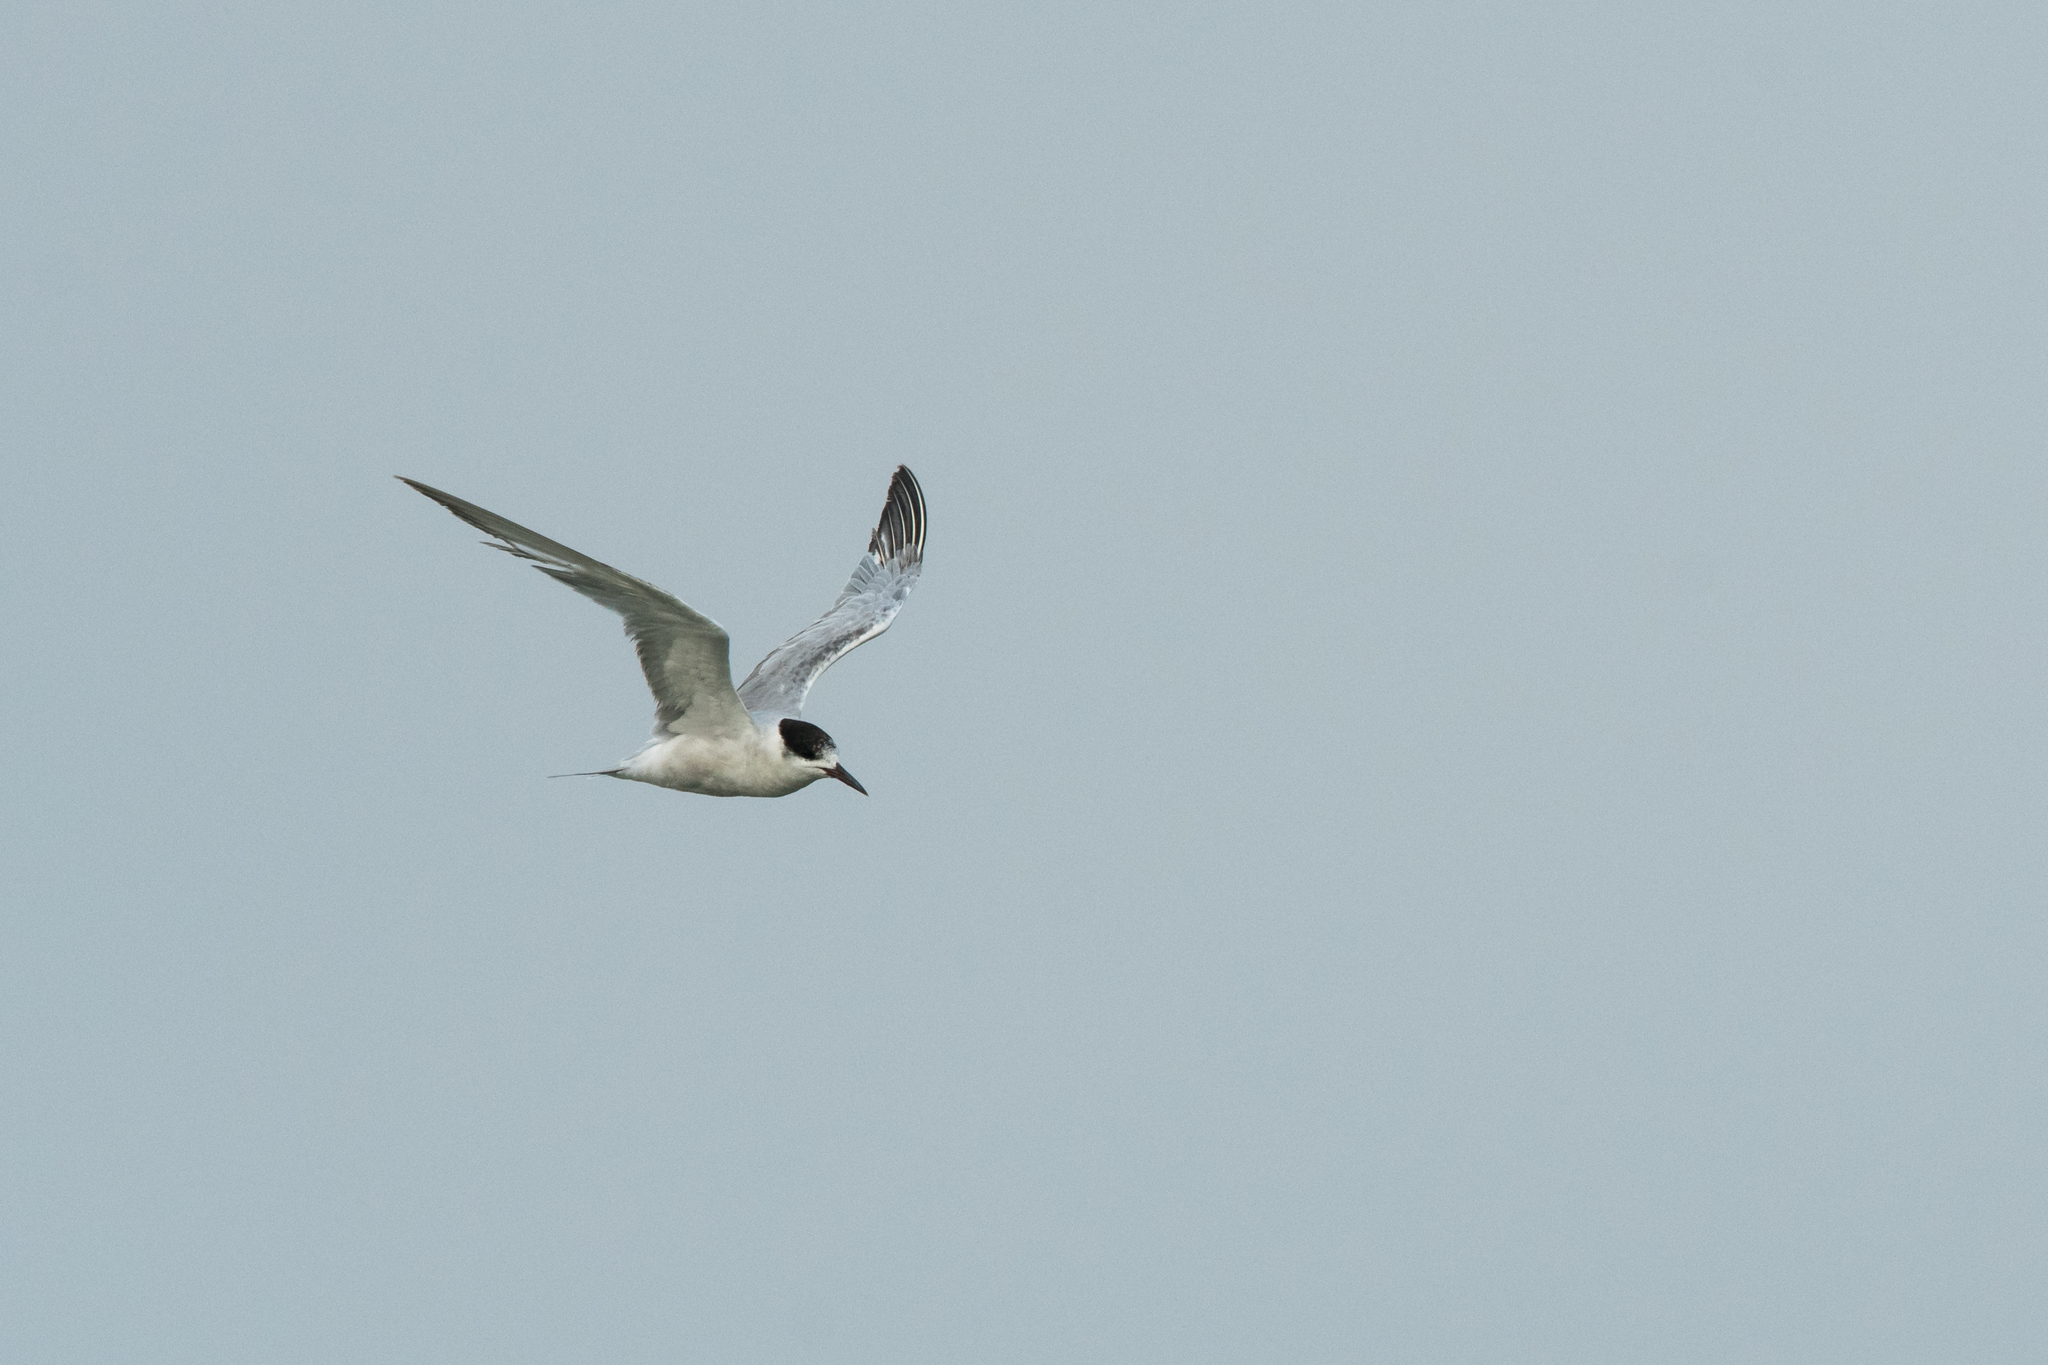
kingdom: Animalia
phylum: Chordata
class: Aves
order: Charadriiformes
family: Laridae
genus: Sterna
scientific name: Sterna hirundo
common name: Common tern
